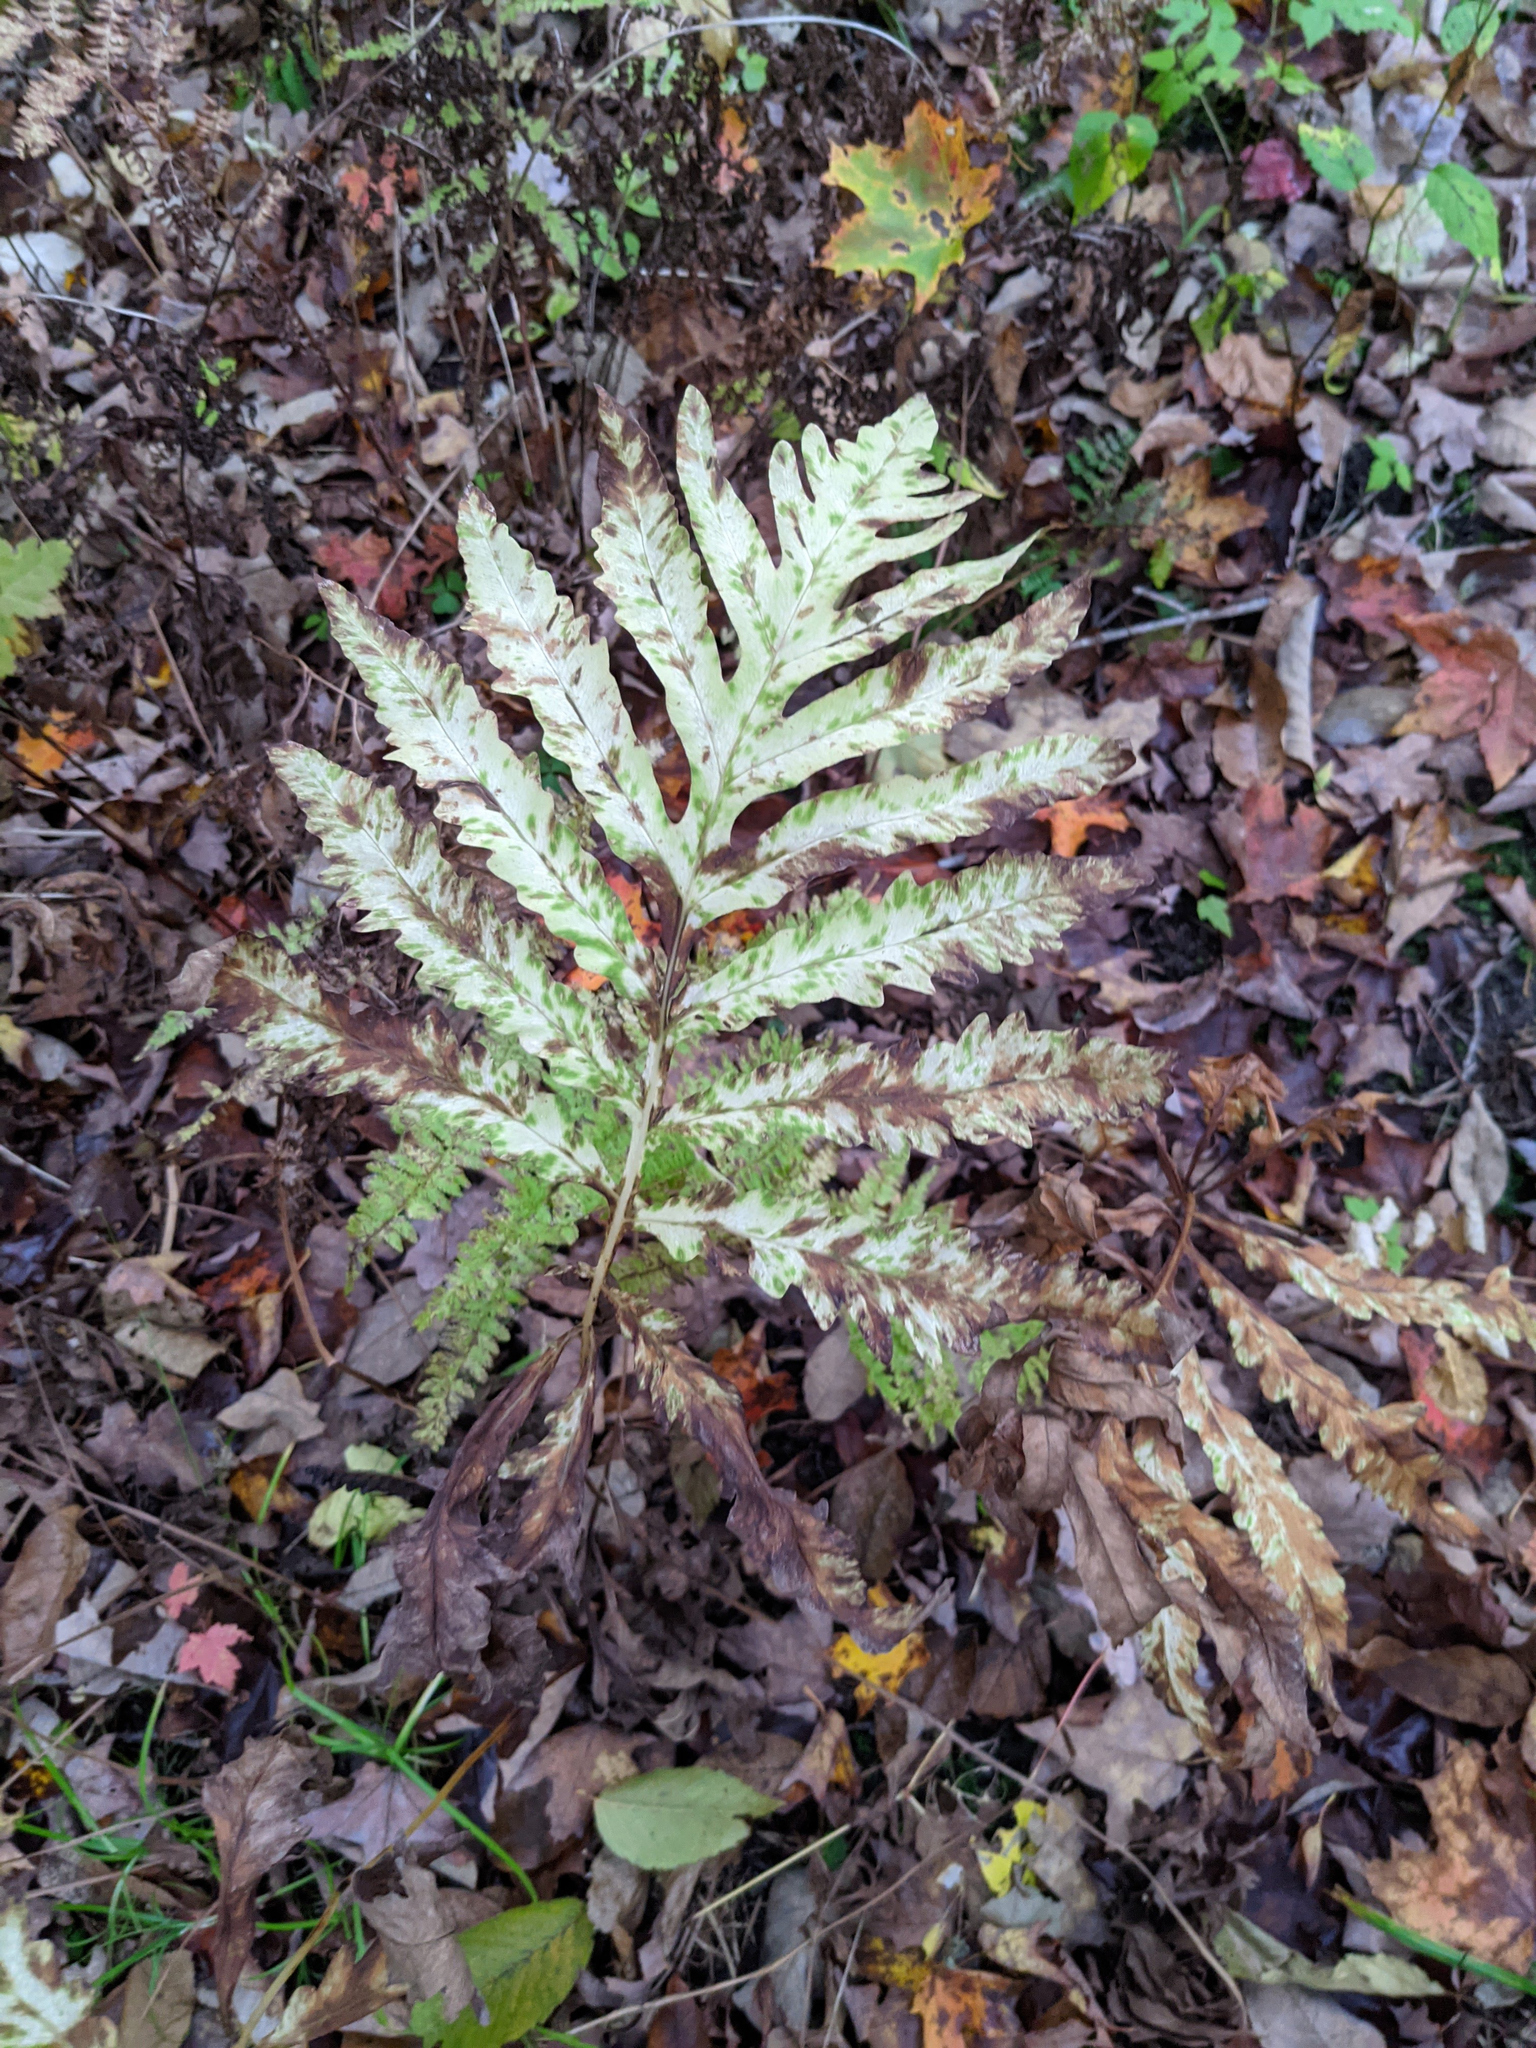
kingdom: Plantae
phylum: Tracheophyta
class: Polypodiopsida
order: Polypodiales
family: Onocleaceae
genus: Onoclea
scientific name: Onoclea sensibilis
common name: Sensitive fern
